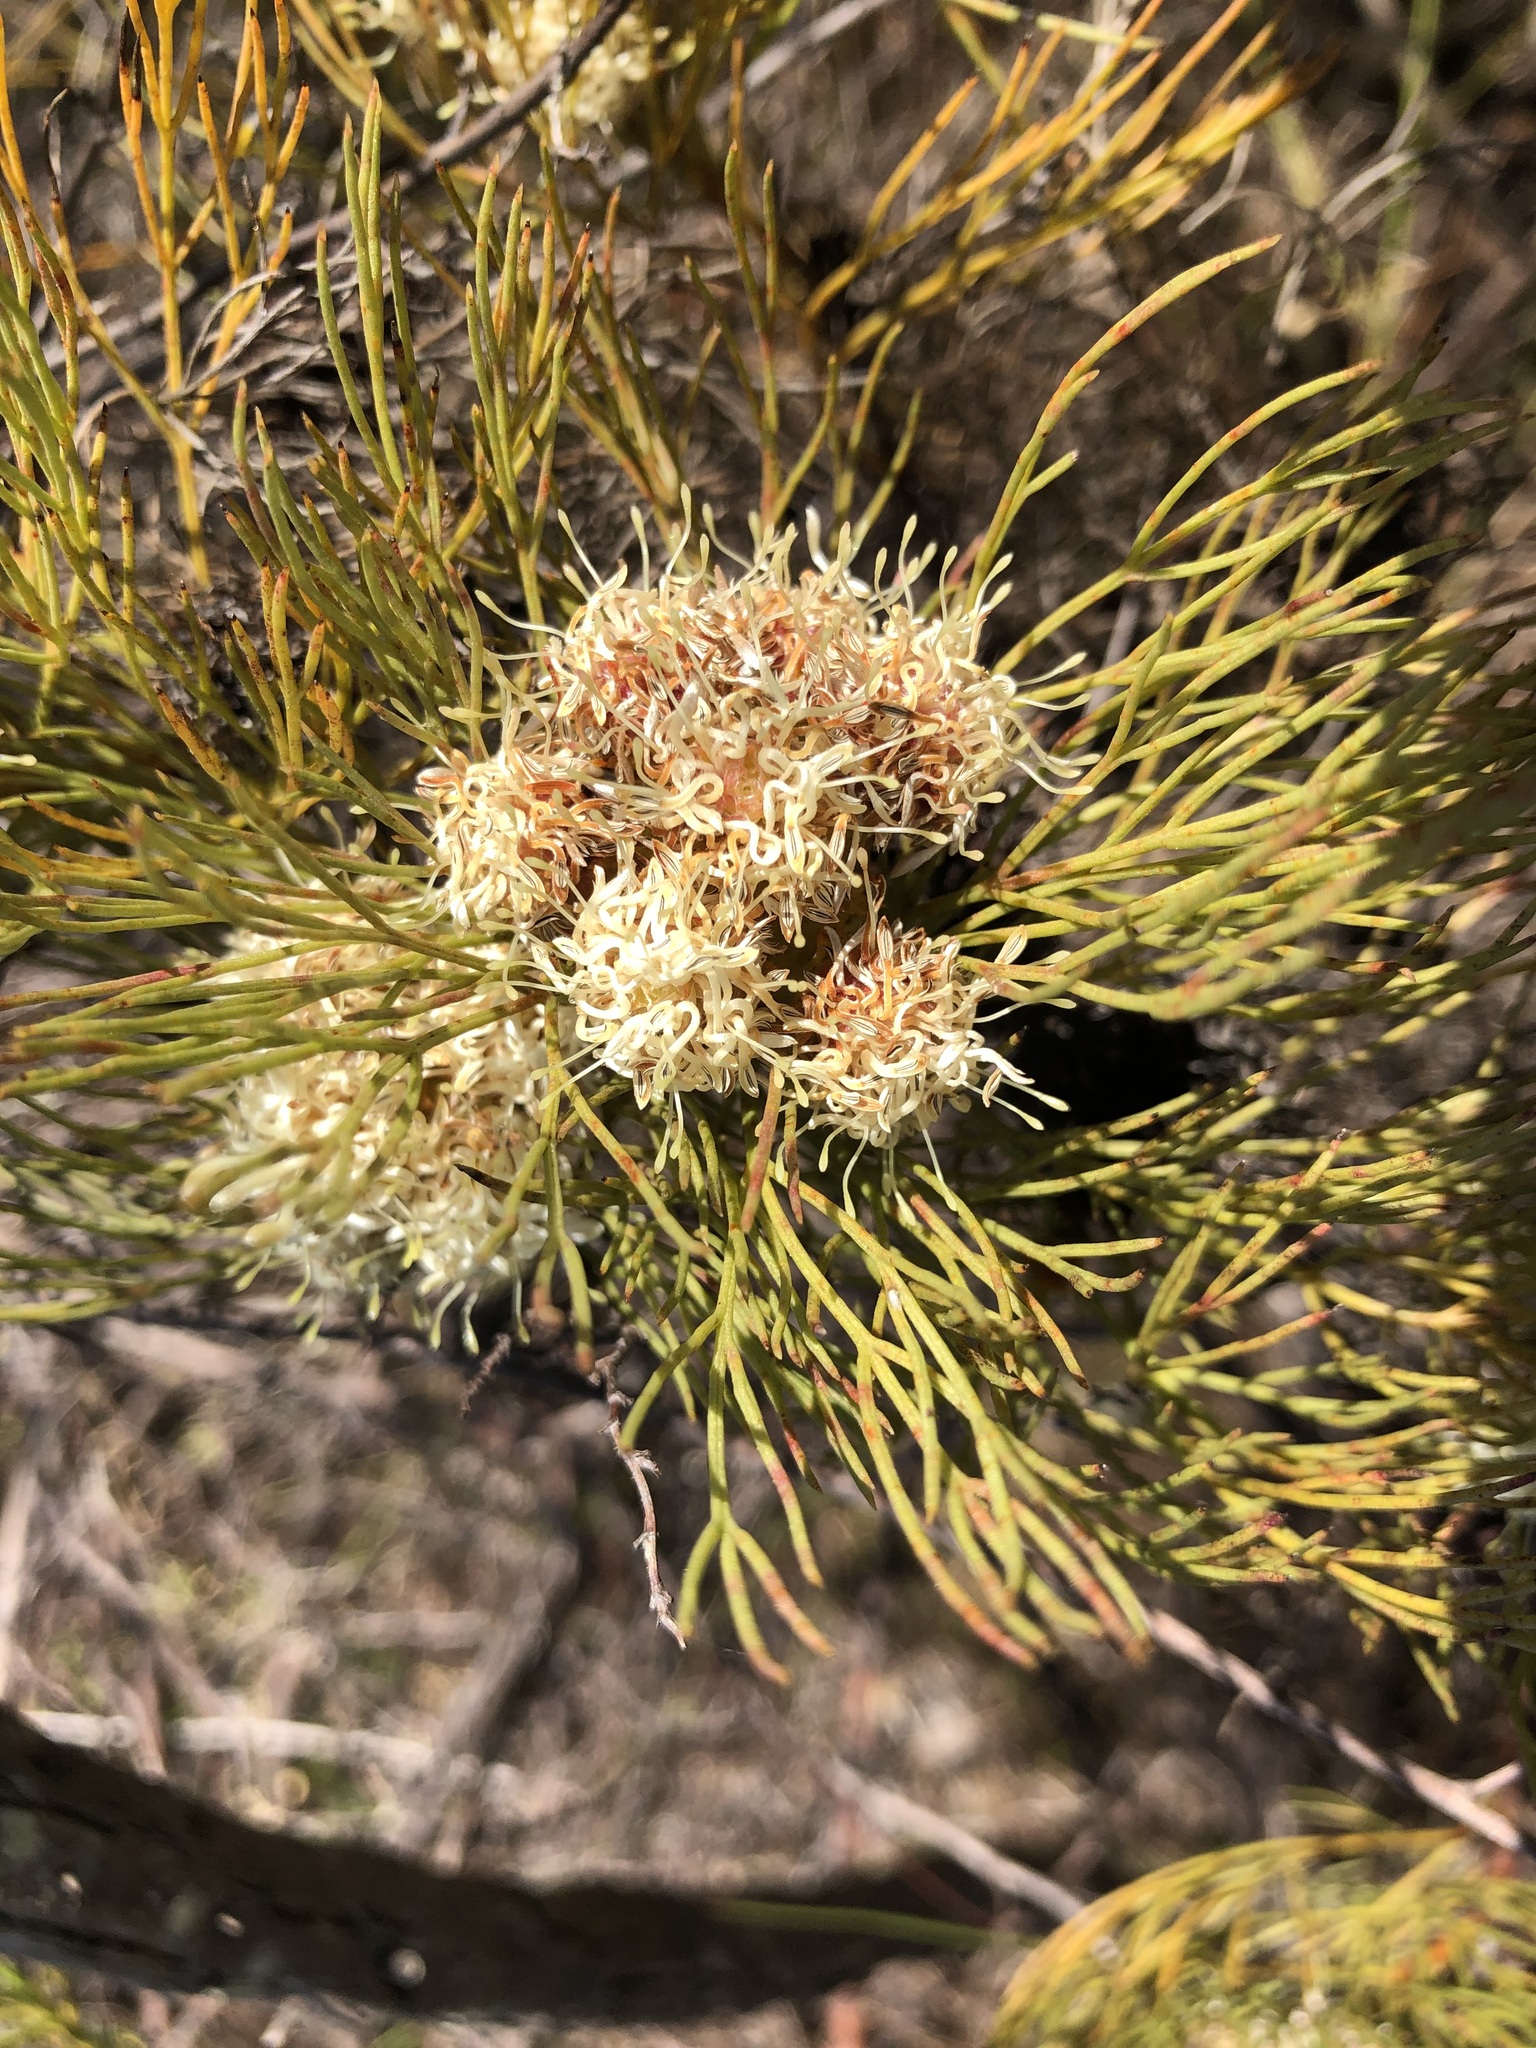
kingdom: Plantae
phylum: Tracheophyta
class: Magnoliopsida
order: Proteales
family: Proteaceae
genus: Serruria
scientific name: Serruria glomerata
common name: Cluster spiderhead
